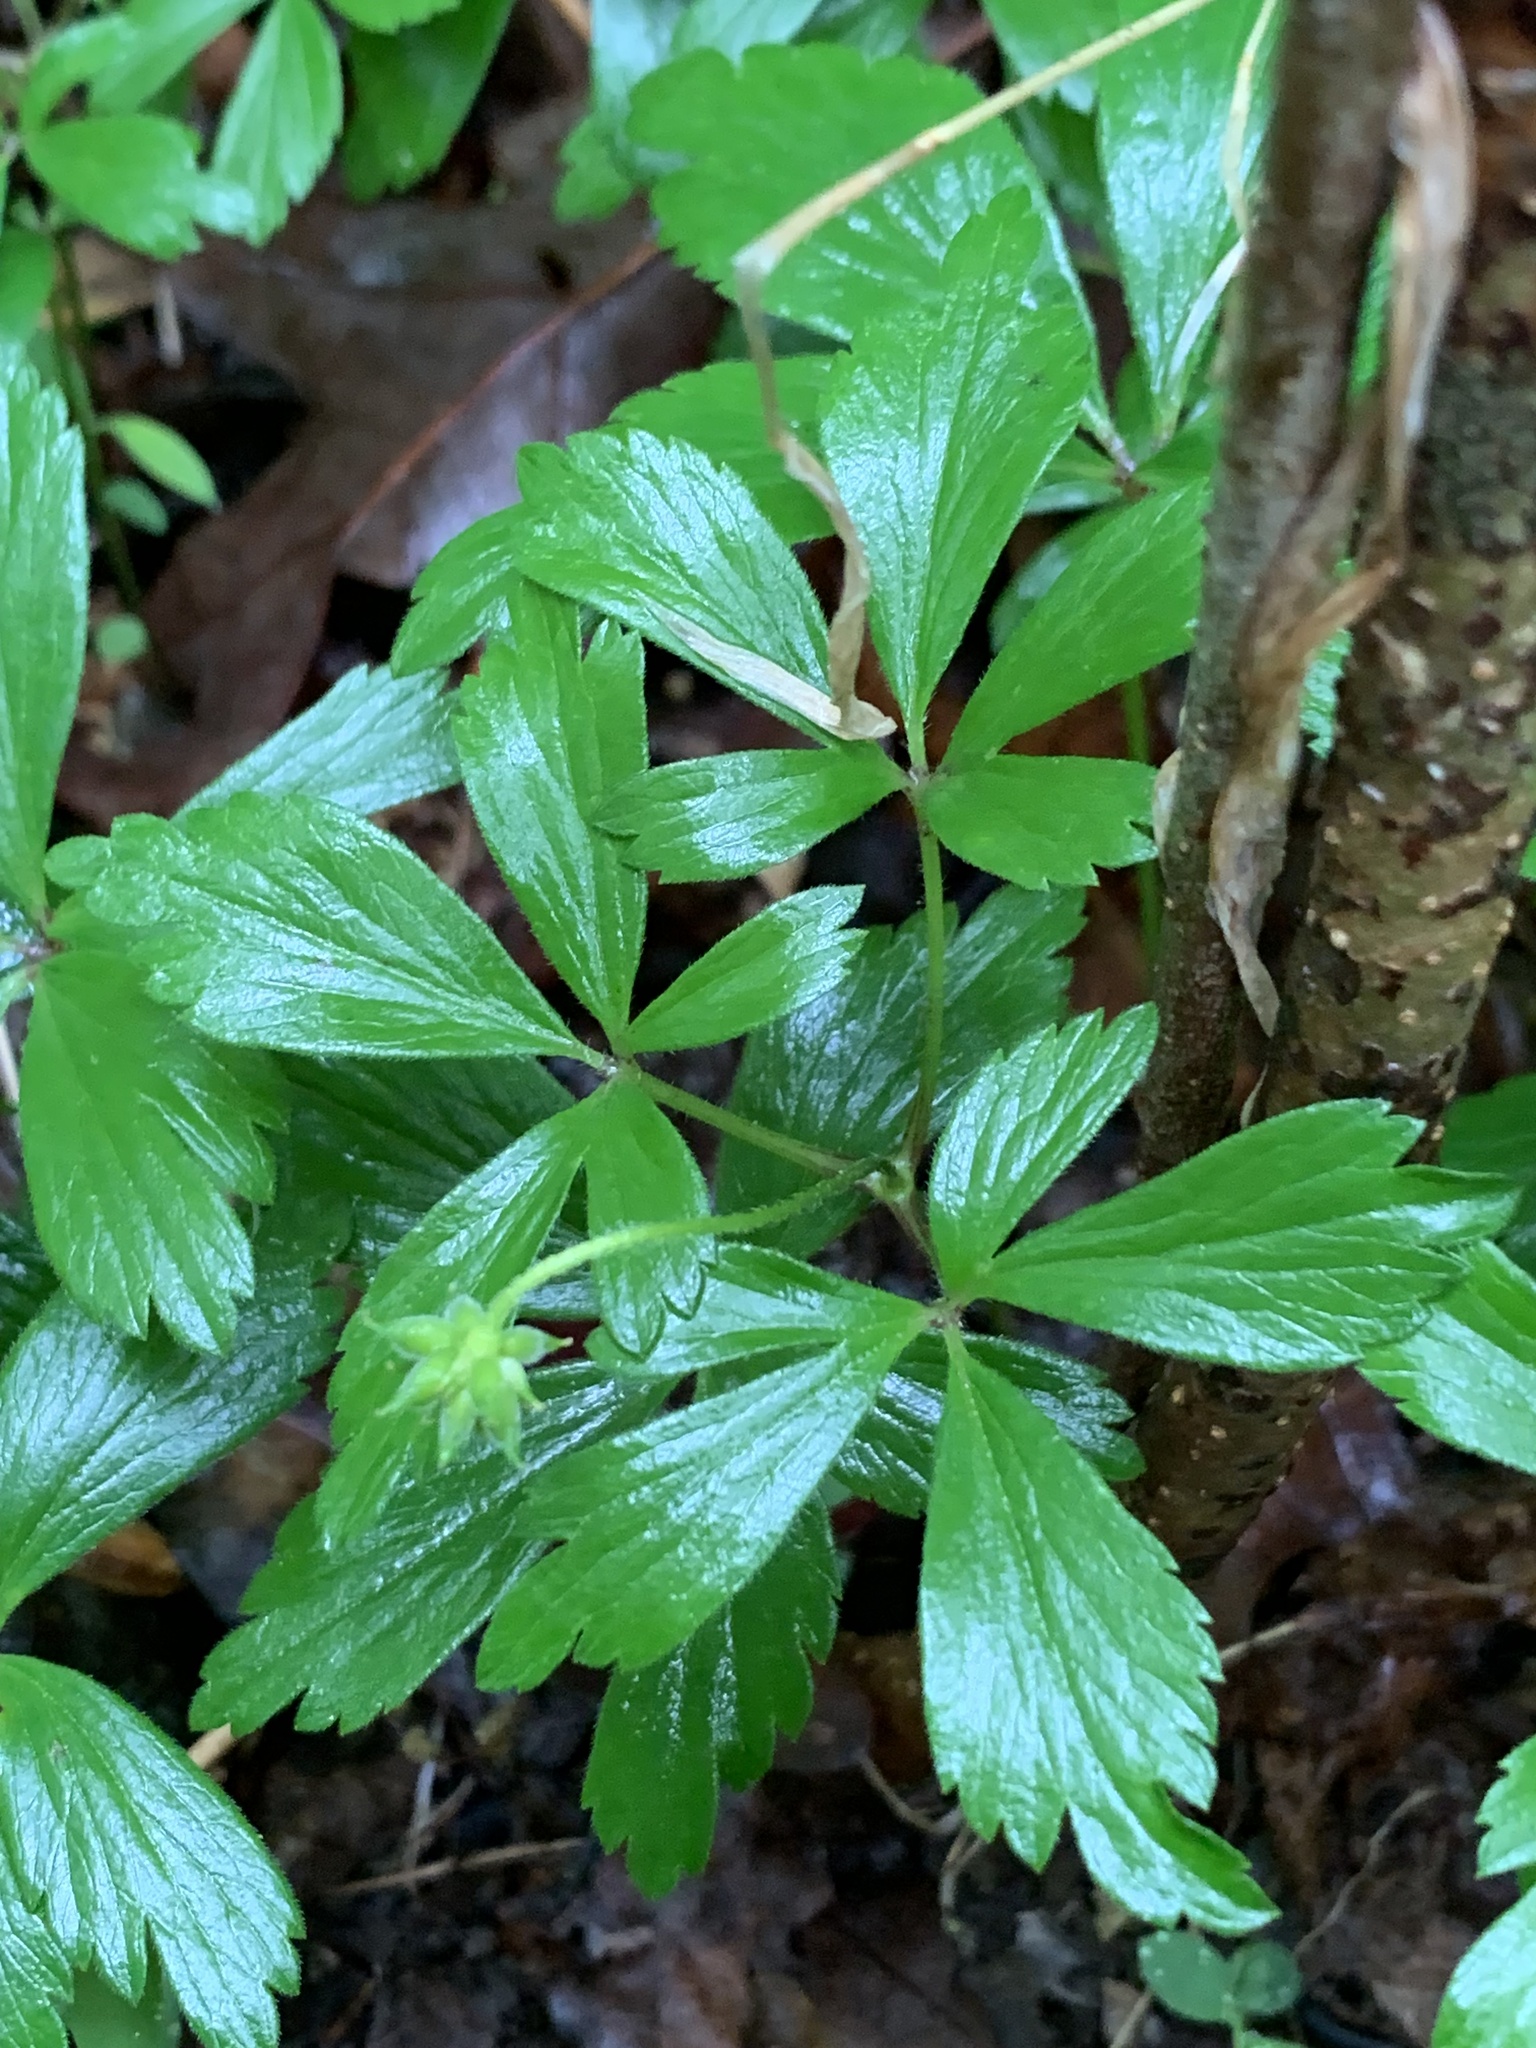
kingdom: Plantae
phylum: Tracheophyta
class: Magnoliopsida
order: Ranunculales
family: Ranunculaceae
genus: Anemone
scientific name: Anemone quinquefolia
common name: Wood anemone
